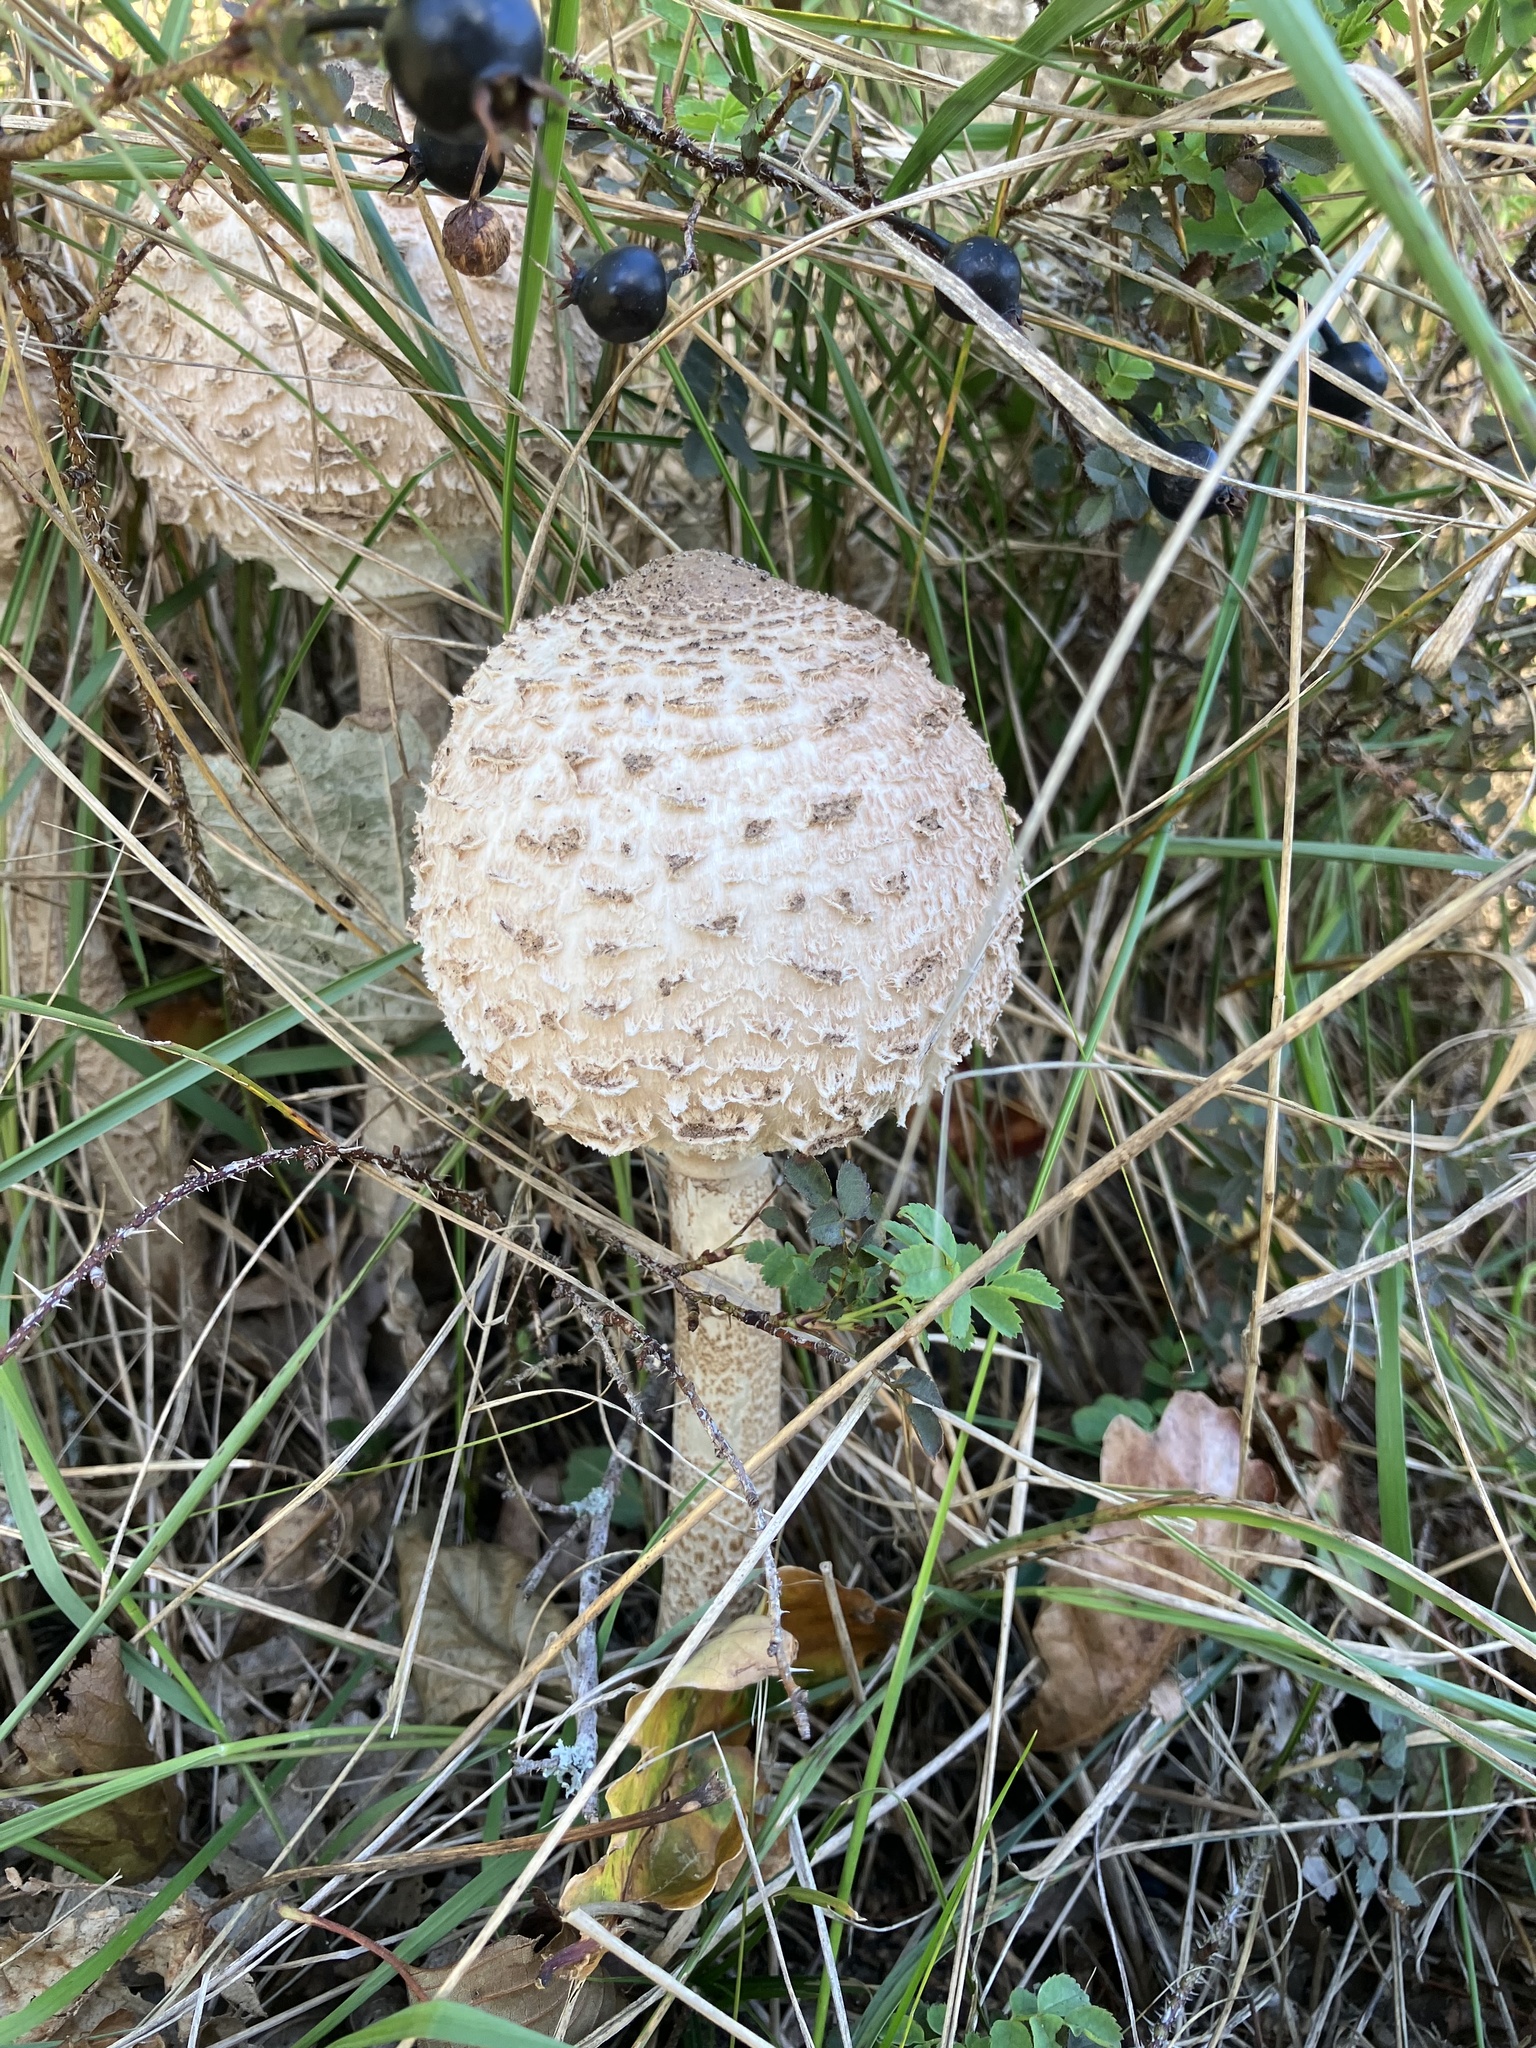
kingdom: Fungi
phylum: Basidiomycota
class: Agaricomycetes
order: Agaricales
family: Agaricaceae
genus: Macrolepiota
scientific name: Macrolepiota procera
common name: Parasol
